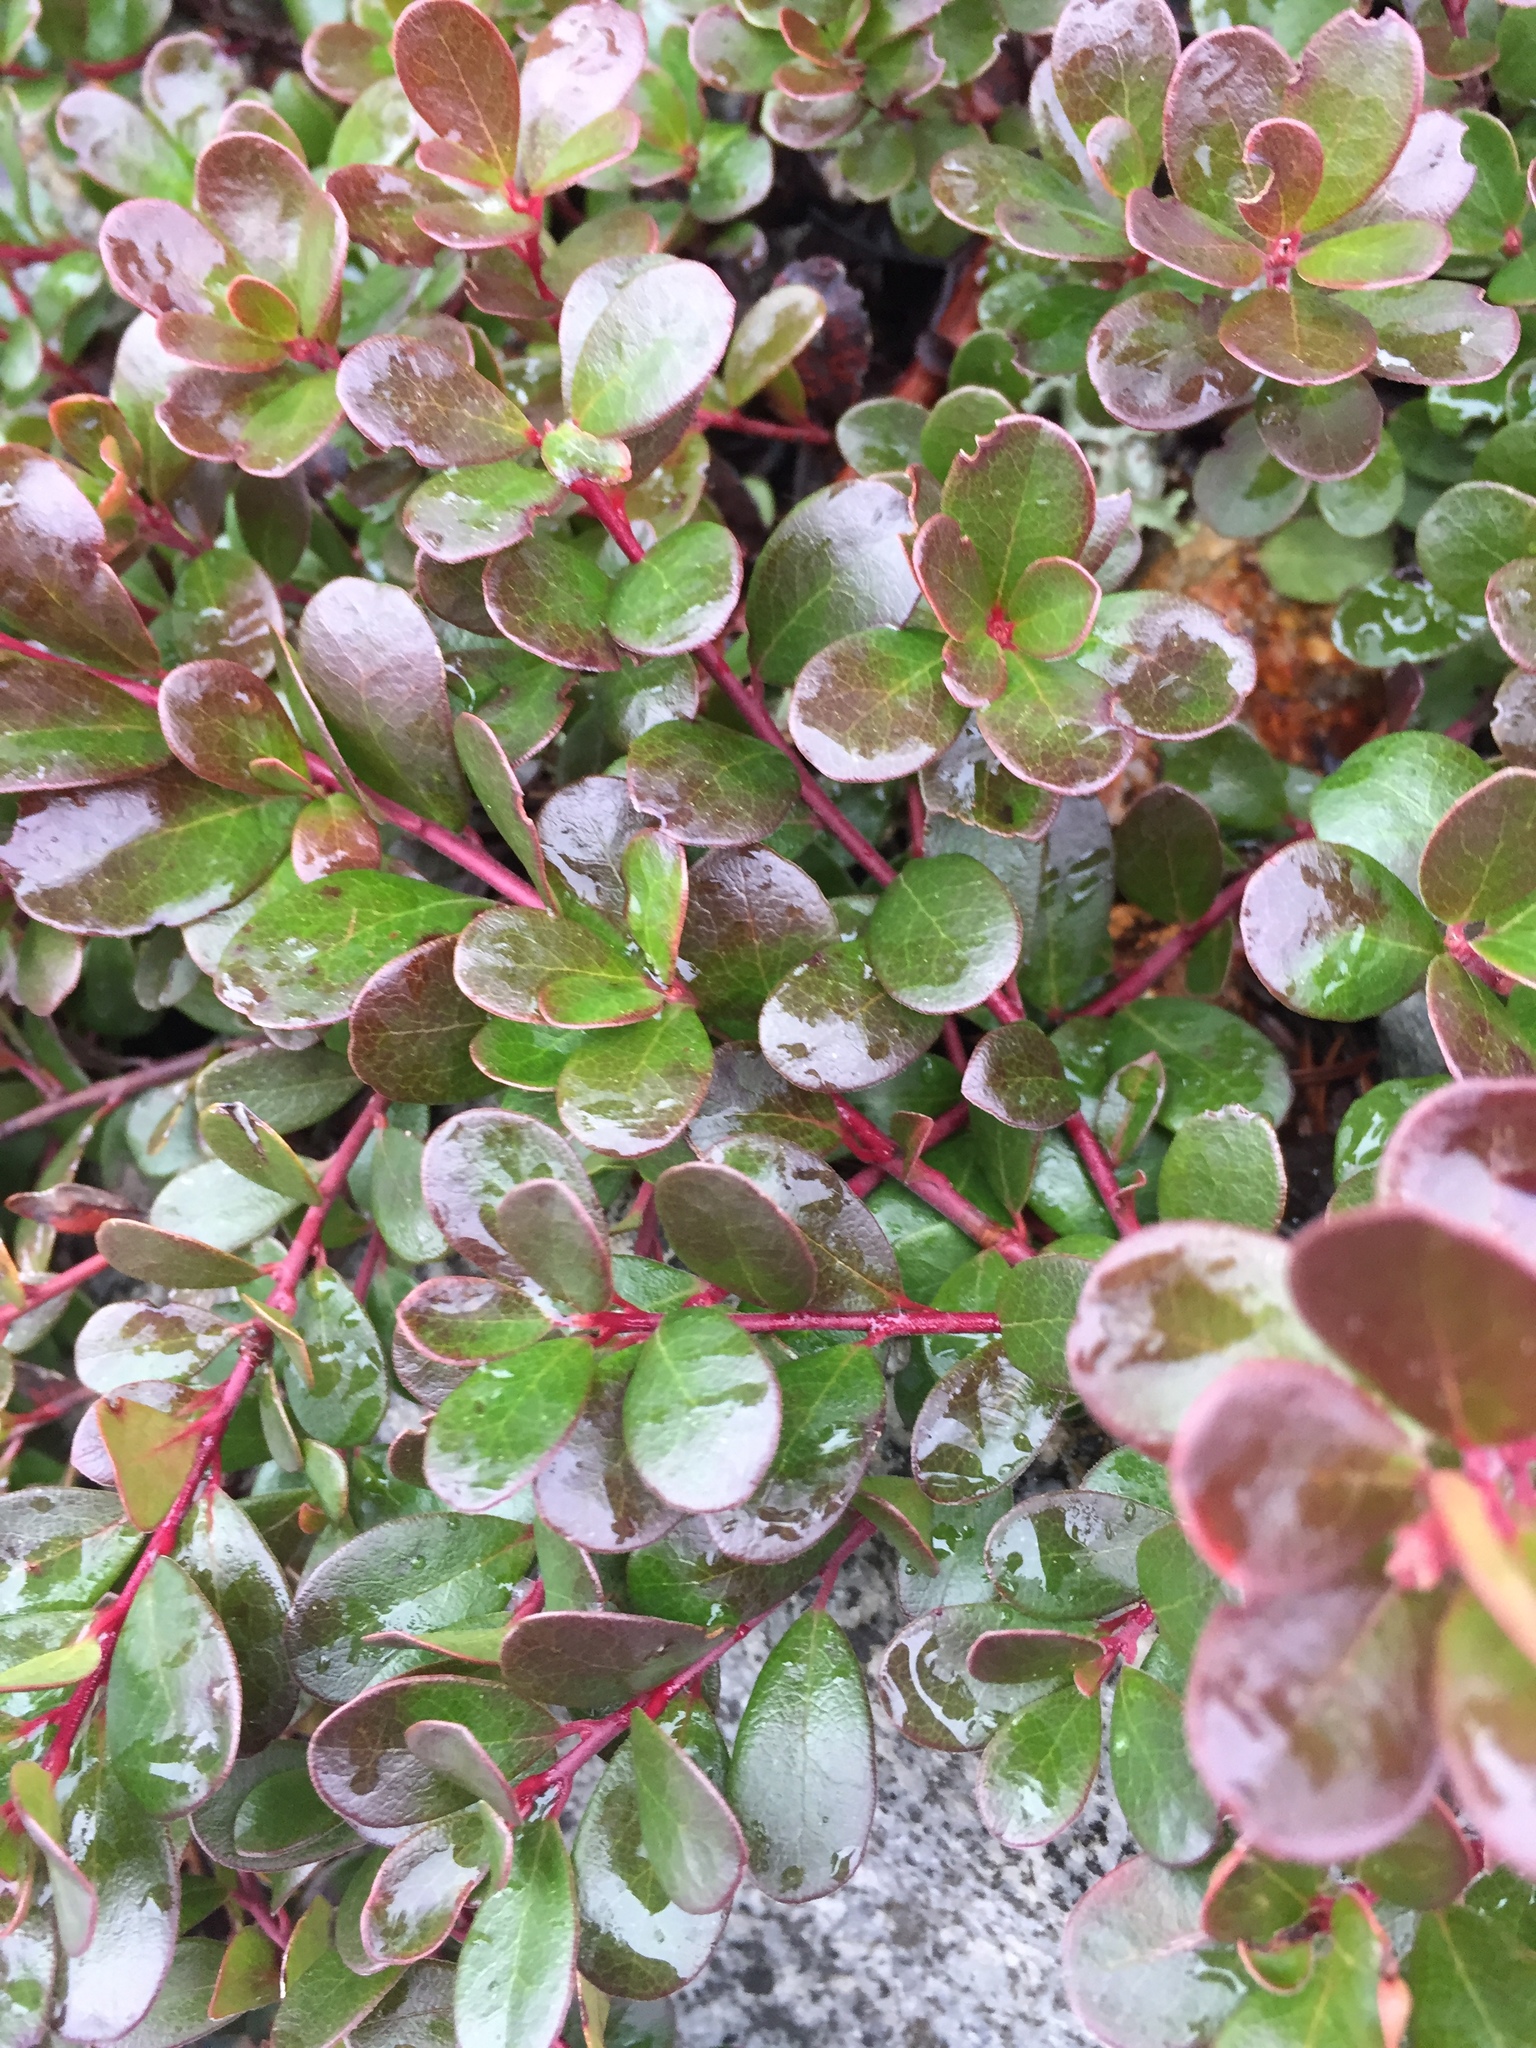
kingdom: Plantae
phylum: Tracheophyta
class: Magnoliopsida
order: Ericales
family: Ericaceae
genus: Arctostaphylos
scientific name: Arctostaphylos uva-ursi
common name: Bearberry
